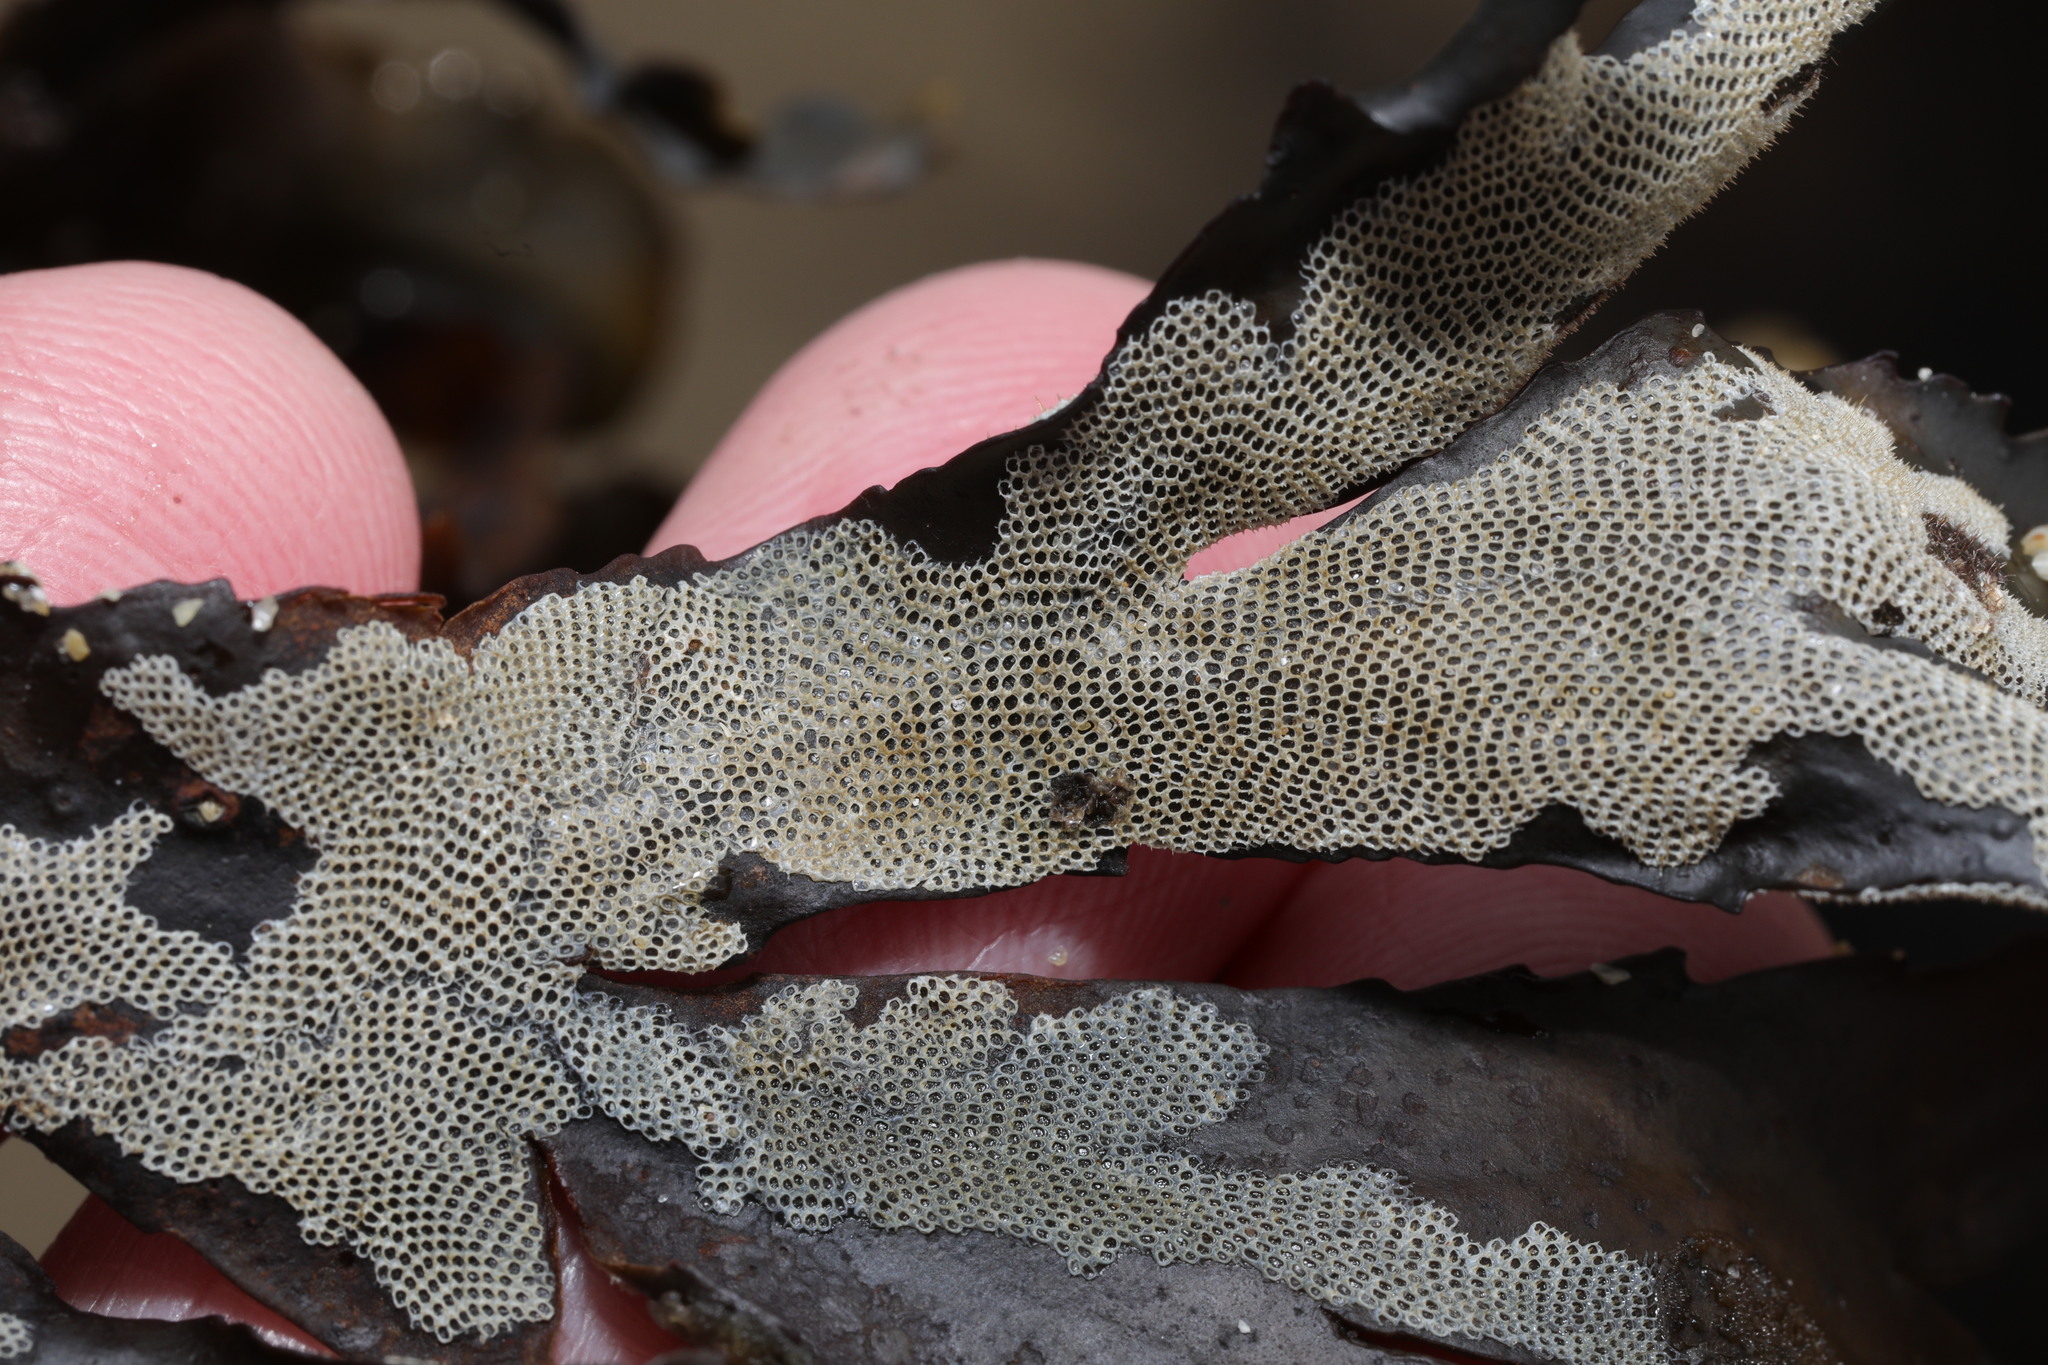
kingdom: Animalia
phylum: Bryozoa
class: Gymnolaemata
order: Cheilostomatida
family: Electridae
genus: Electra
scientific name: Electra pilosa
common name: Hairy sea-mat
